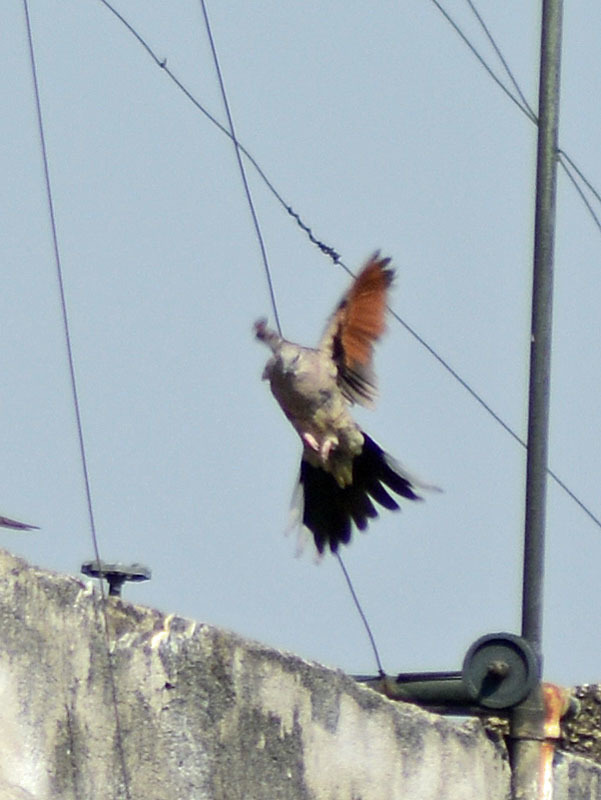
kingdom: Animalia
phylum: Chordata
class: Aves
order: Columbiformes
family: Columbidae
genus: Columbina
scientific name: Columbina inca
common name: Inca dove
